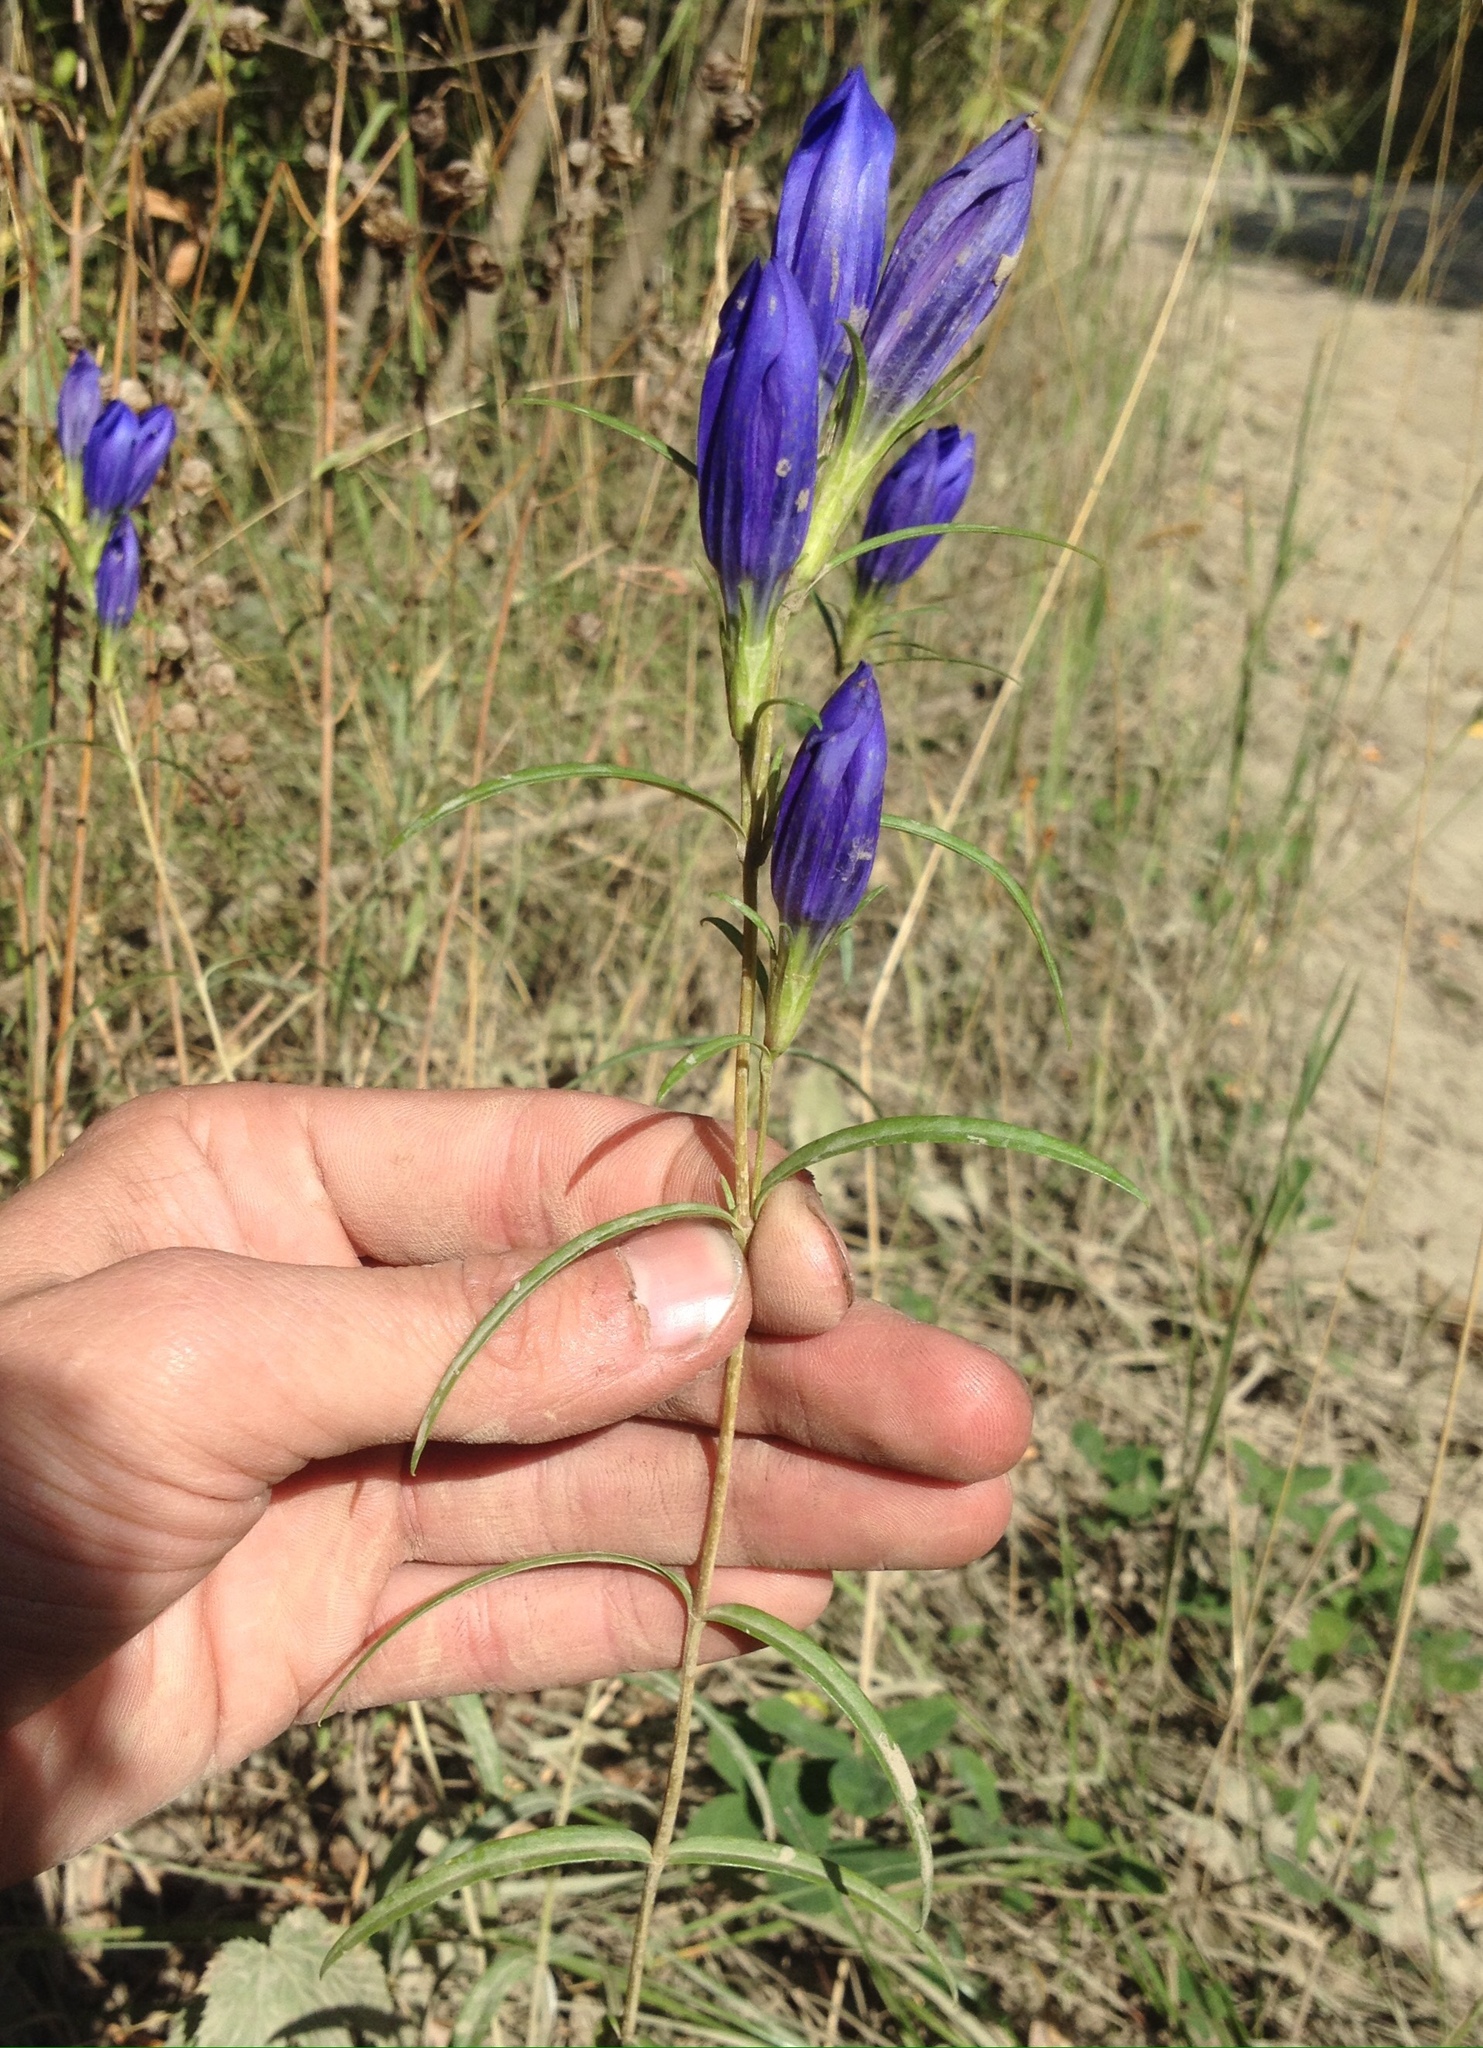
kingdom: Plantae
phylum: Tracheophyta
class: Magnoliopsida
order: Gentianales
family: Gentianaceae
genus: Gentiana
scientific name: Gentiana pneumonanthe
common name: Marsh gentian
